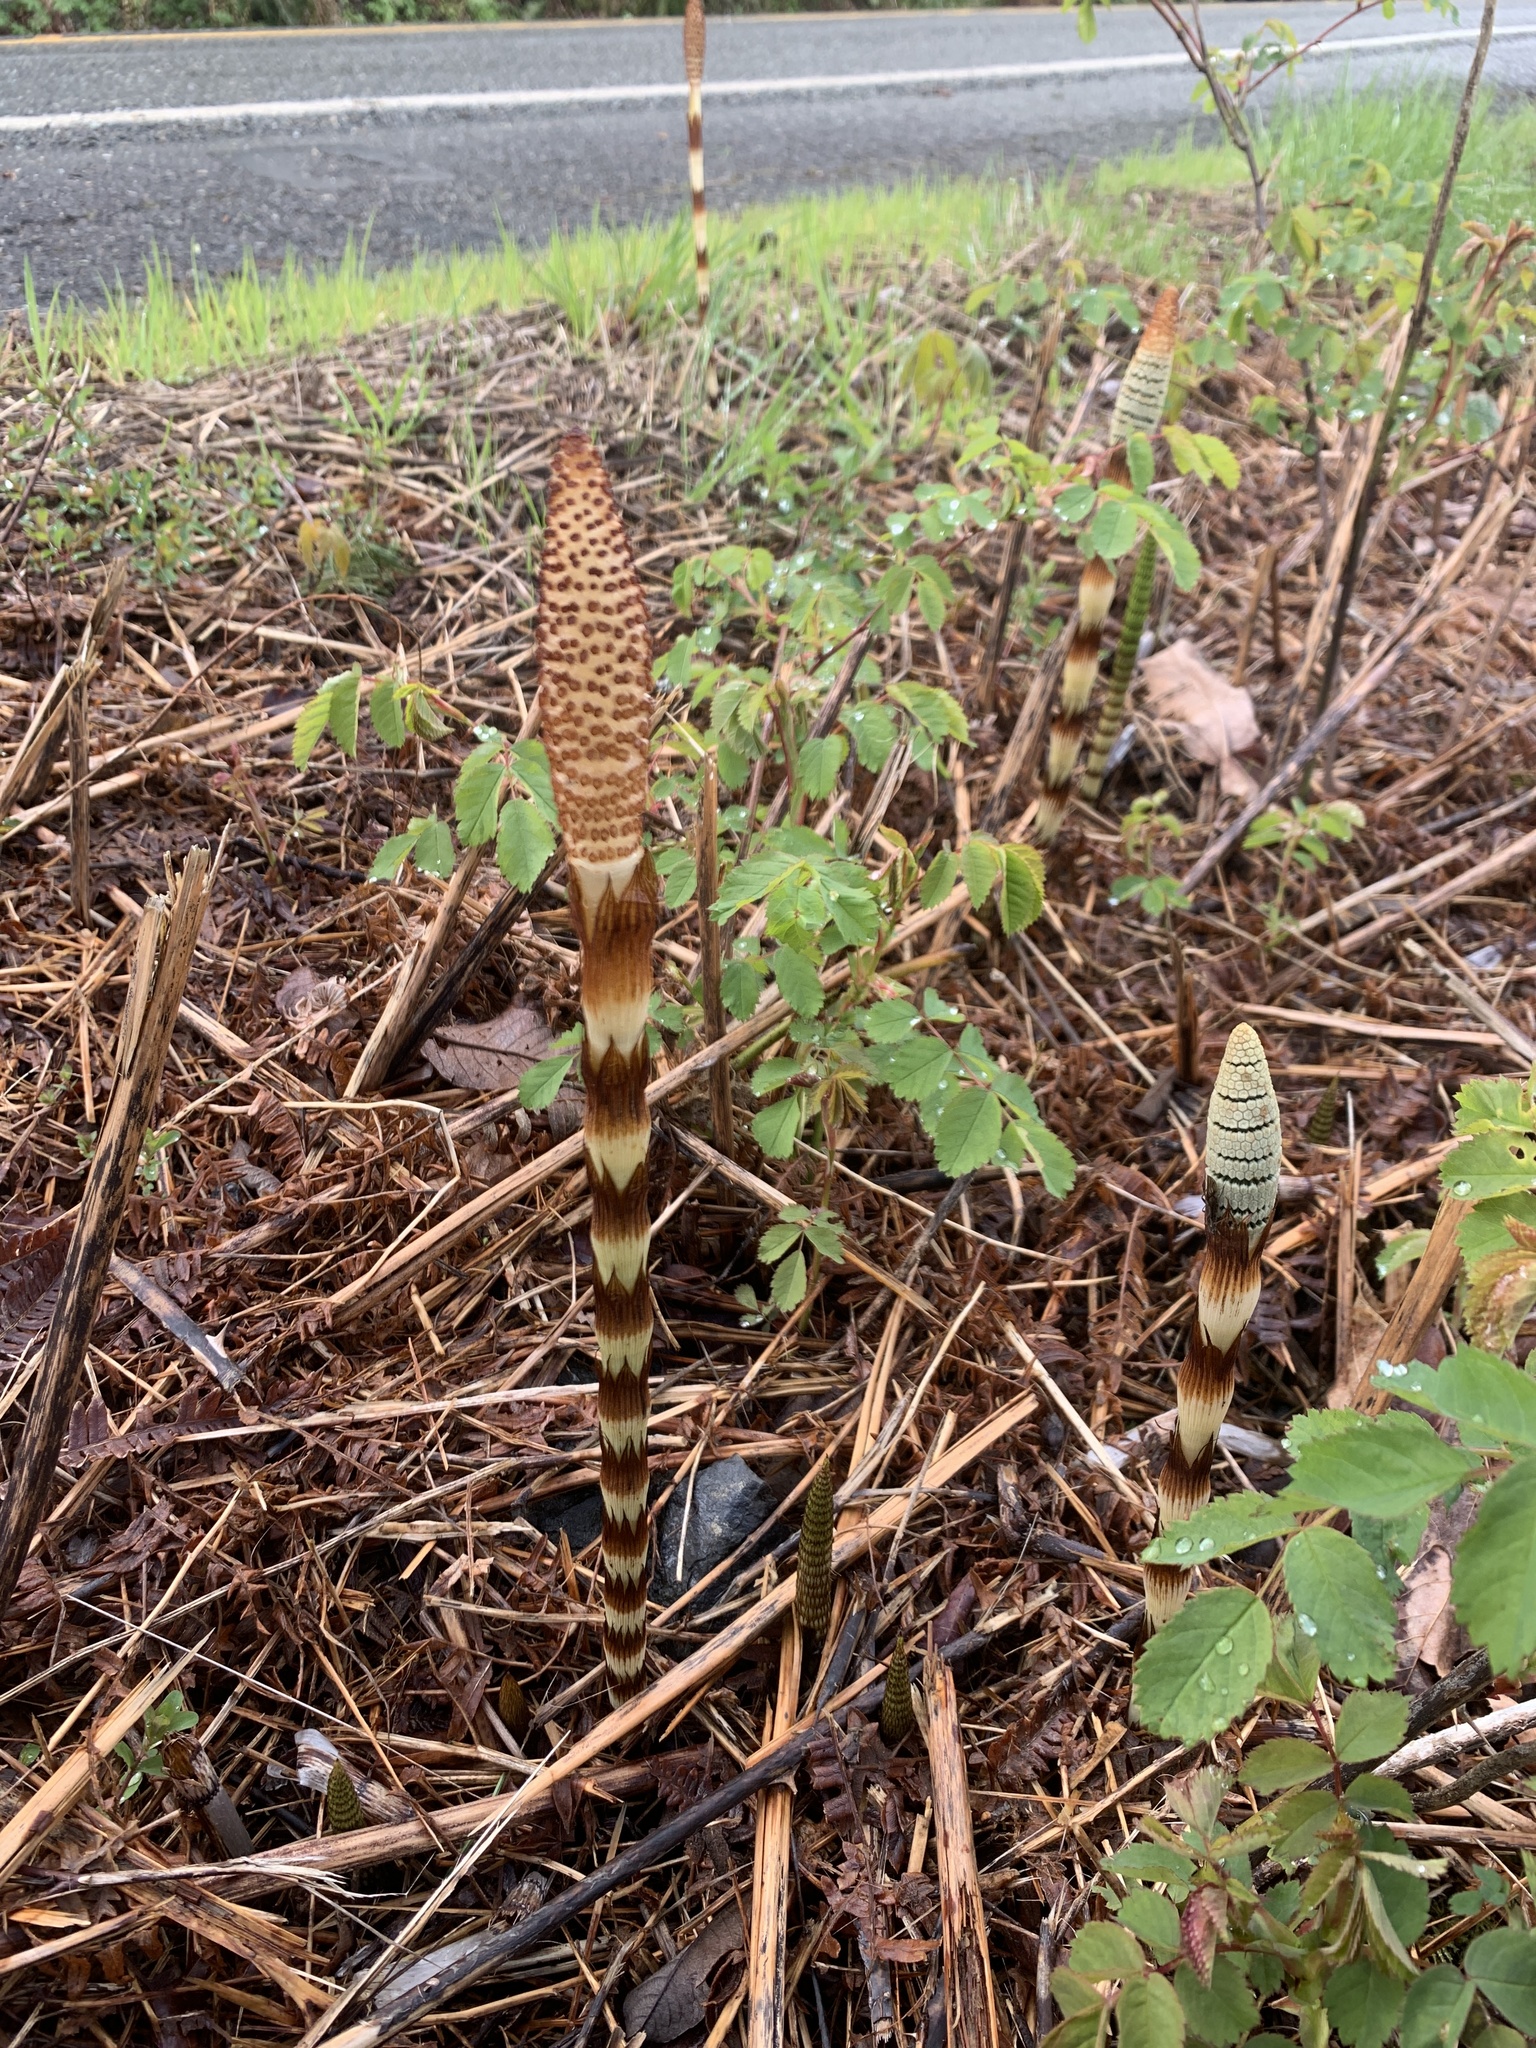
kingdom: Plantae
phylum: Tracheophyta
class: Polypodiopsida
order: Equisetales
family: Equisetaceae
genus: Equisetum
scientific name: Equisetum telmateia
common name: Great horsetail
